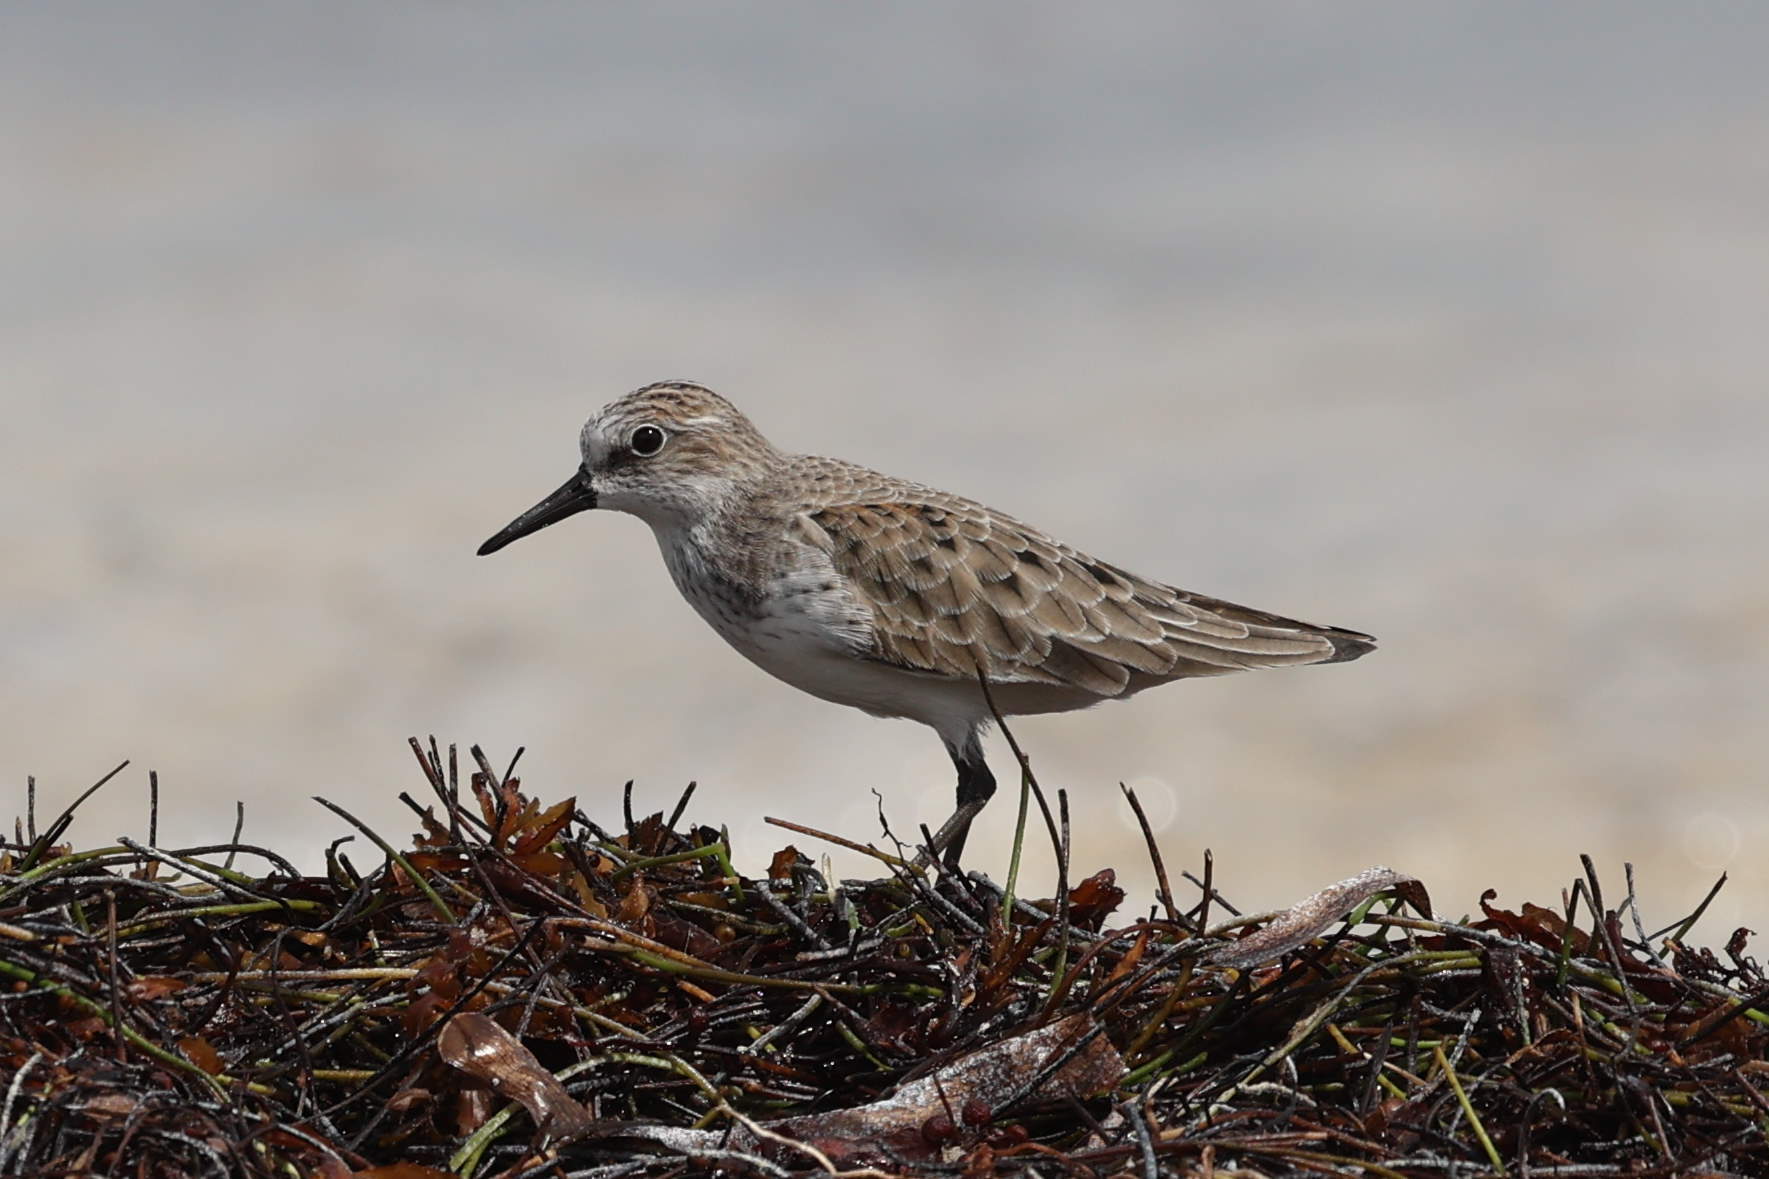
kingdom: Animalia
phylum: Chordata
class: Aves
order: Charadriiformes
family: Scolopacidae
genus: Calidris
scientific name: Calidris pusilla
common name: Semipalmated sandpiper
